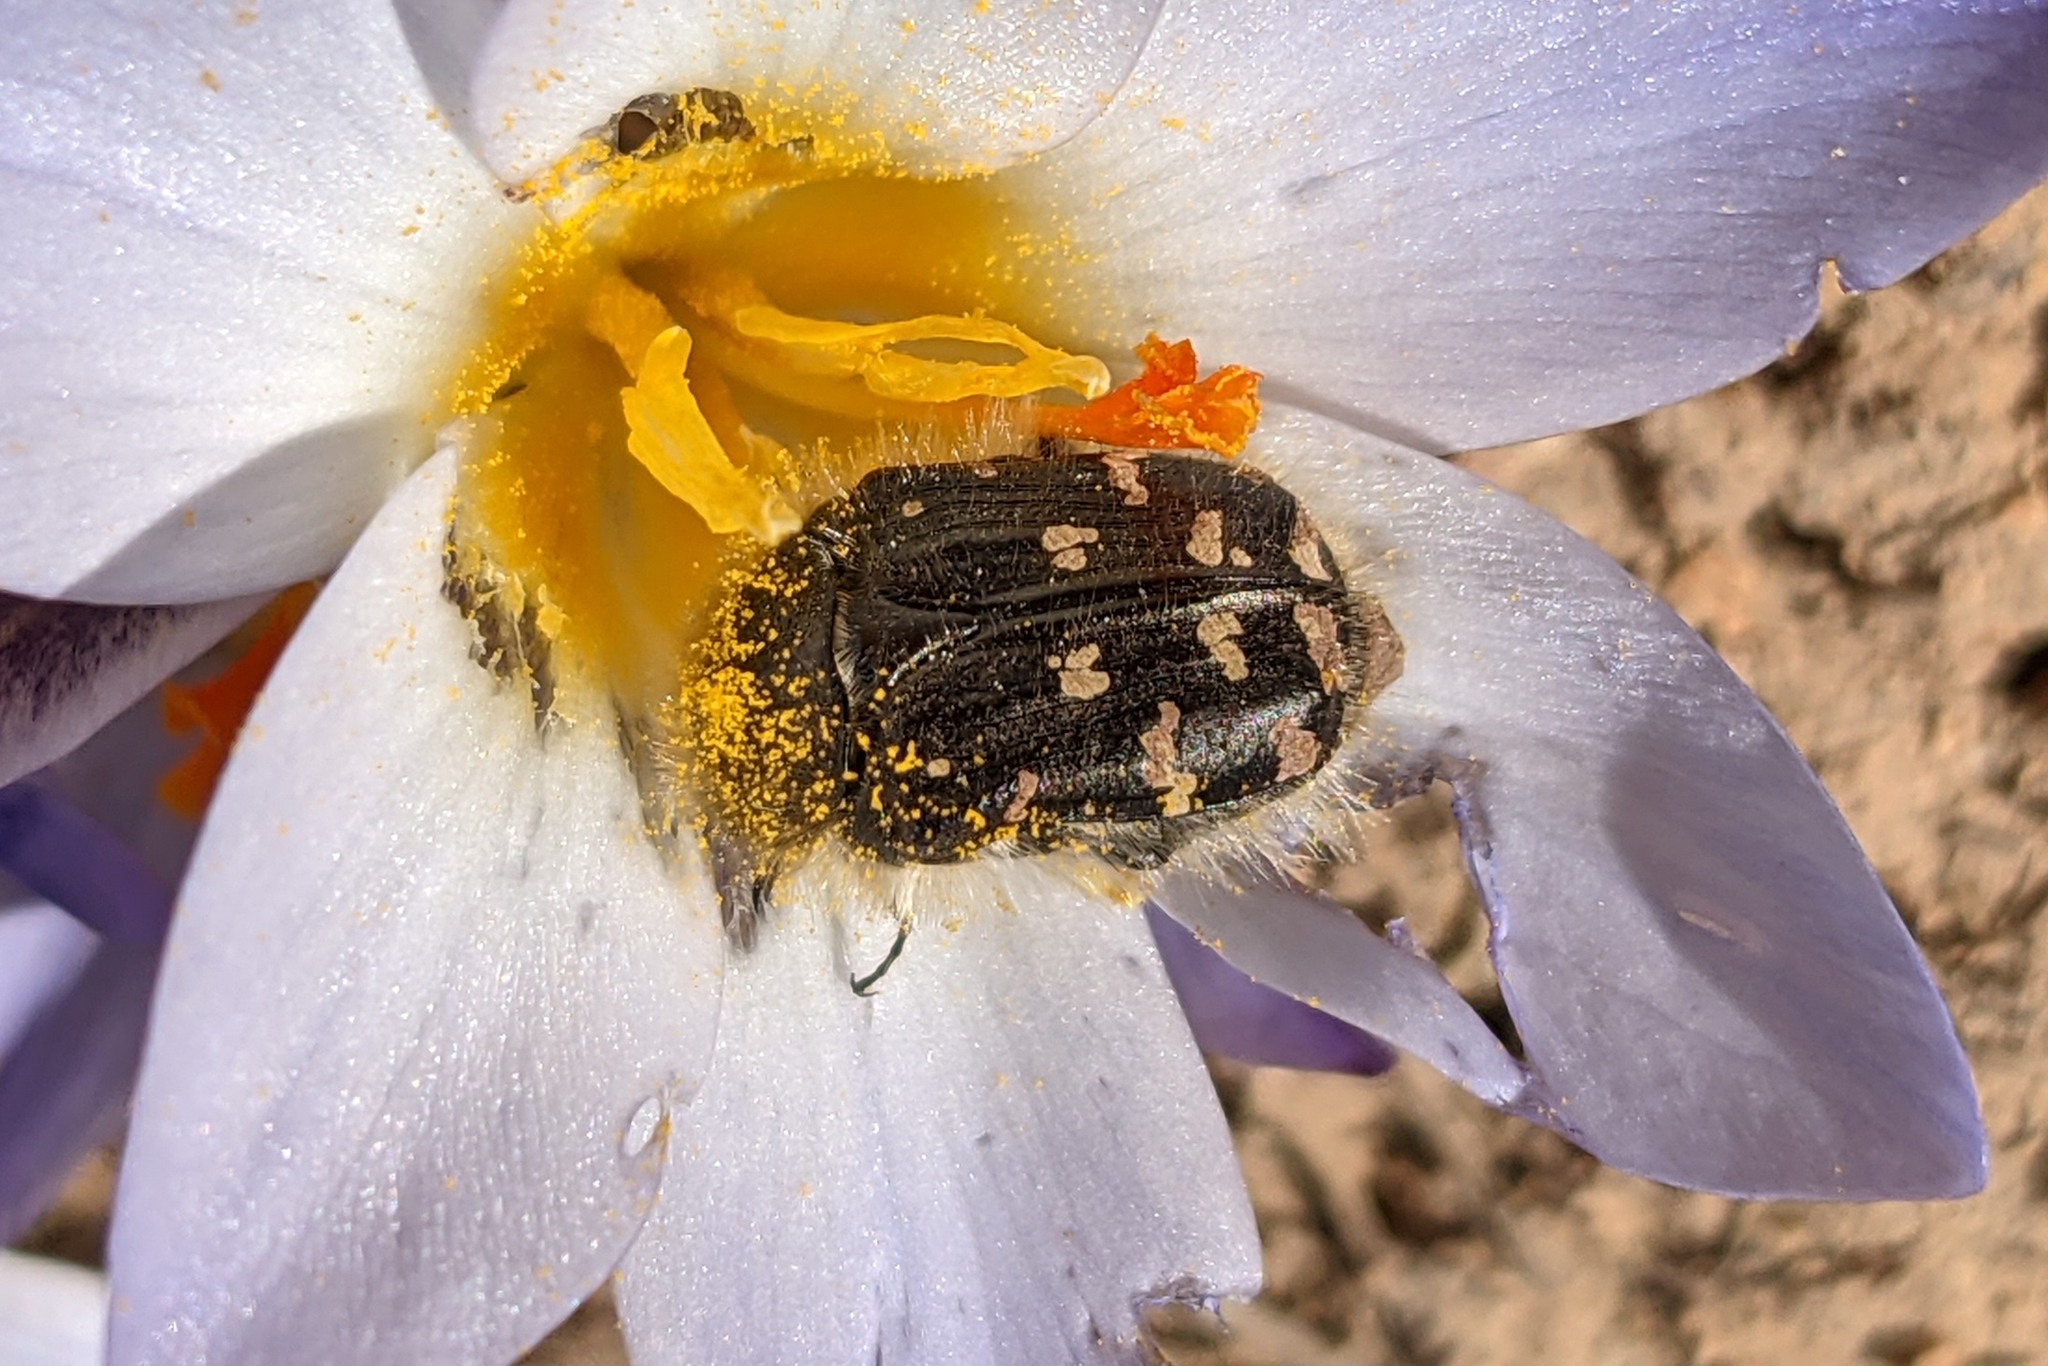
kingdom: Animalia
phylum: Arthropoda
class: Insecta
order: Coleoptera
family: Scarabaeidae
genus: Tropinota
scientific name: Tropinota hirta
